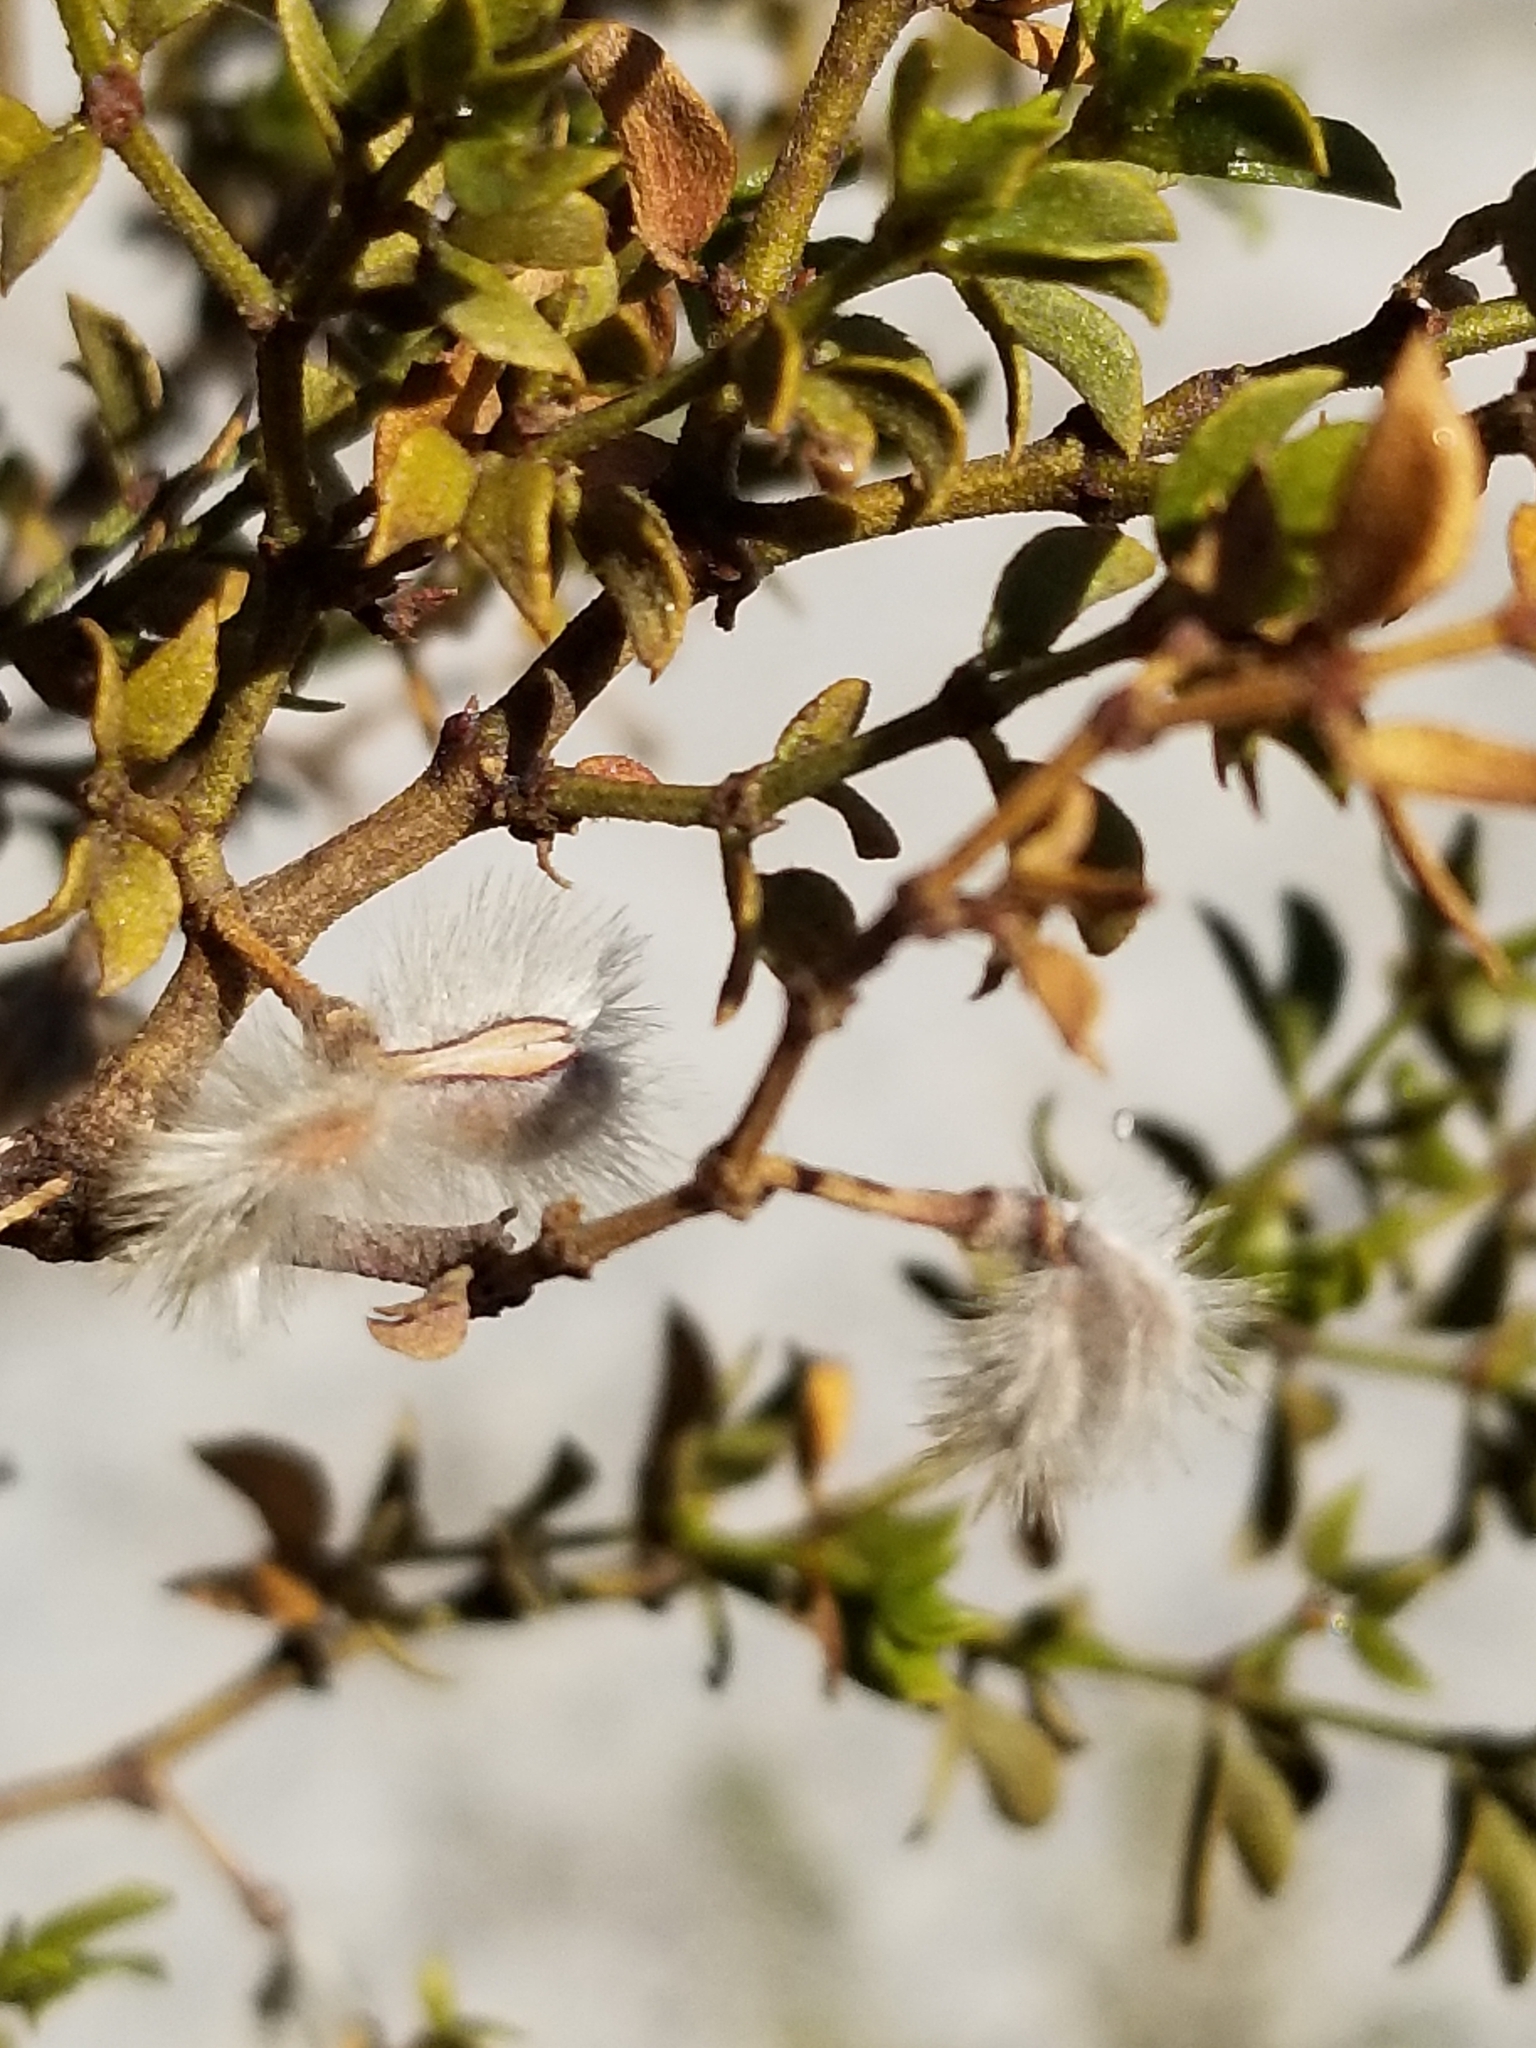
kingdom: Plantae
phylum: Tracheophyta
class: Magnoliopsida
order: Zygophyllales
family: Zygophyllaceae
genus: Larrea
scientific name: Larrea tridentata
